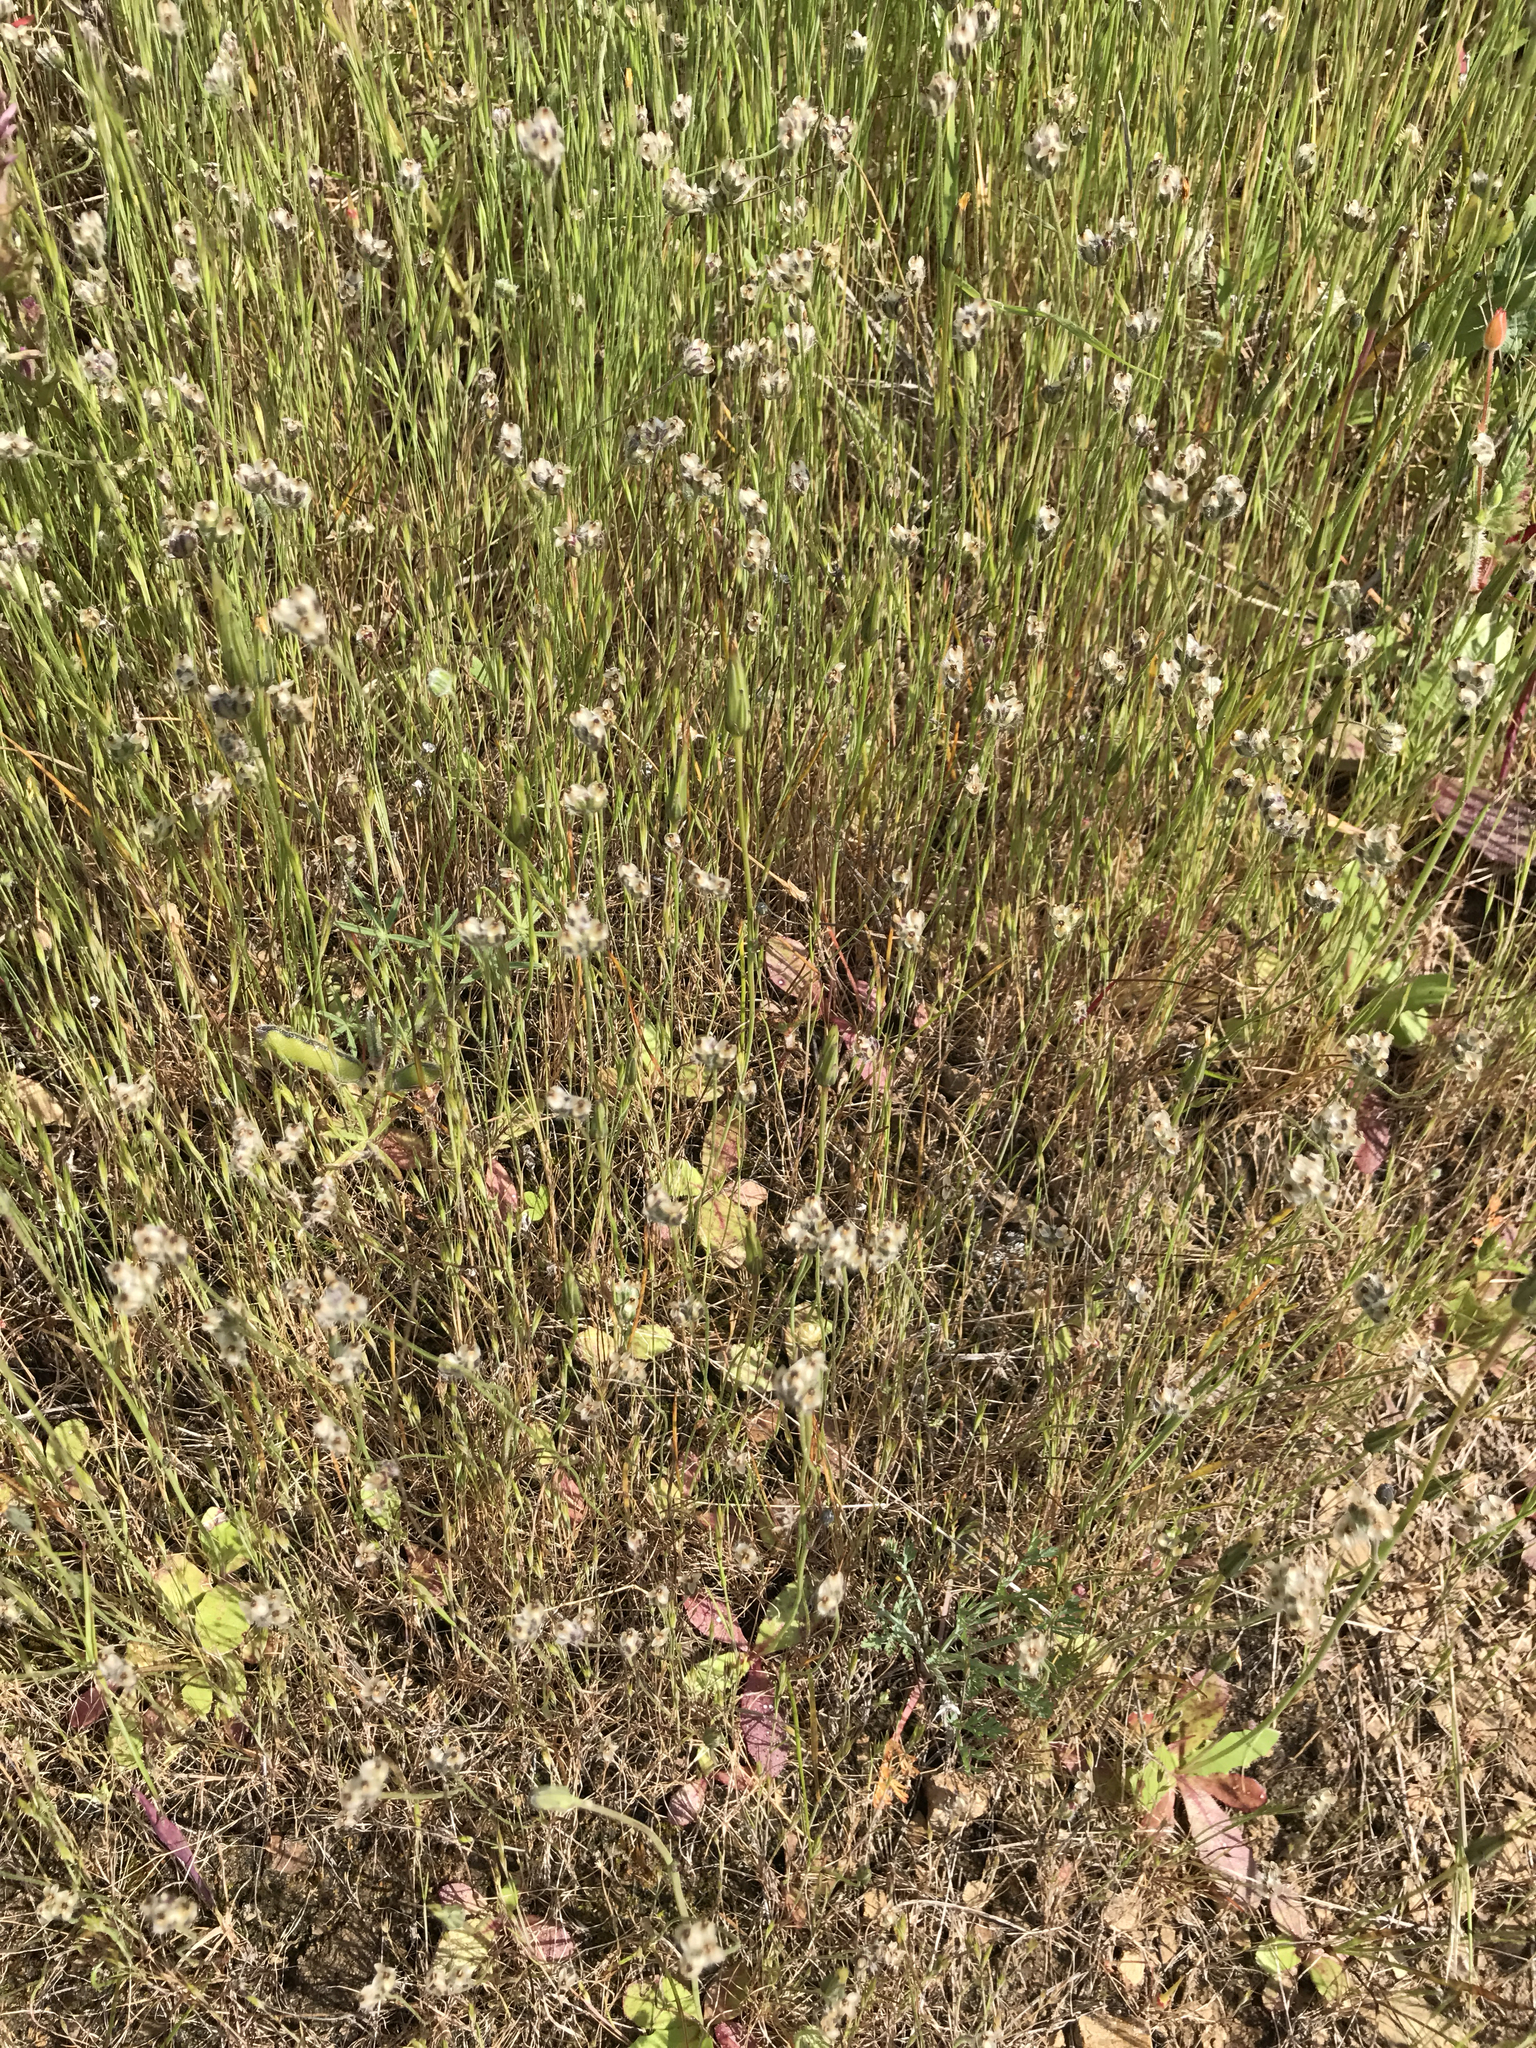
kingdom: Plantae
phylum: Tracheophyta
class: Magnoliopsida
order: Lamiales
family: Plantaginaceae
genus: Plantago
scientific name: Plantago erecta
